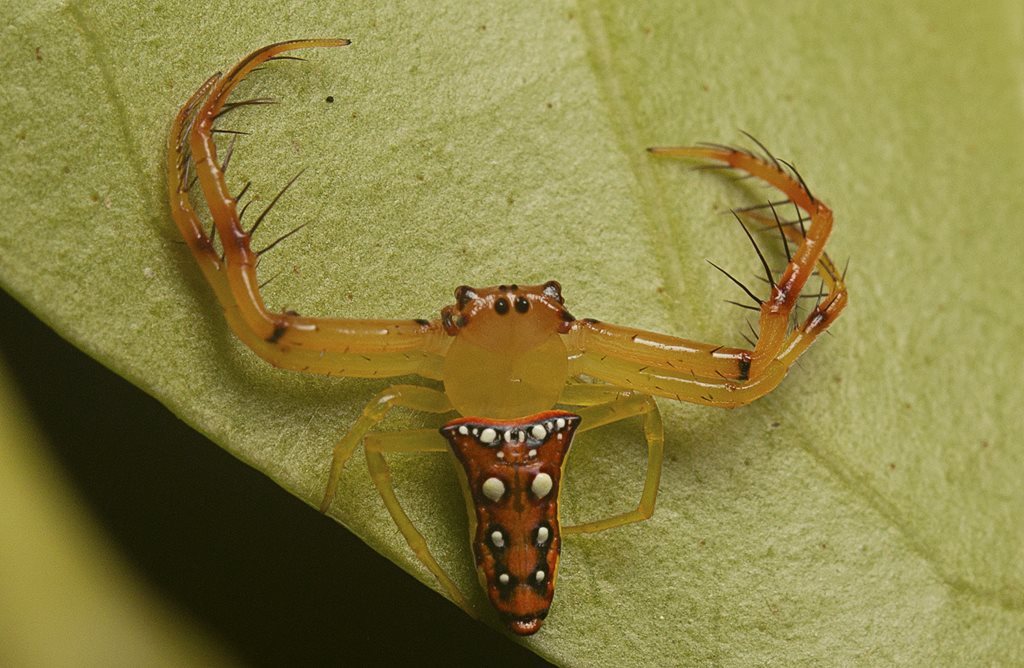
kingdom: Animalia
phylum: Arthropoda
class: Arachnida
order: Araneae
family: Arkyidae
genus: Arkys
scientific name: Arkys bulburinensis
